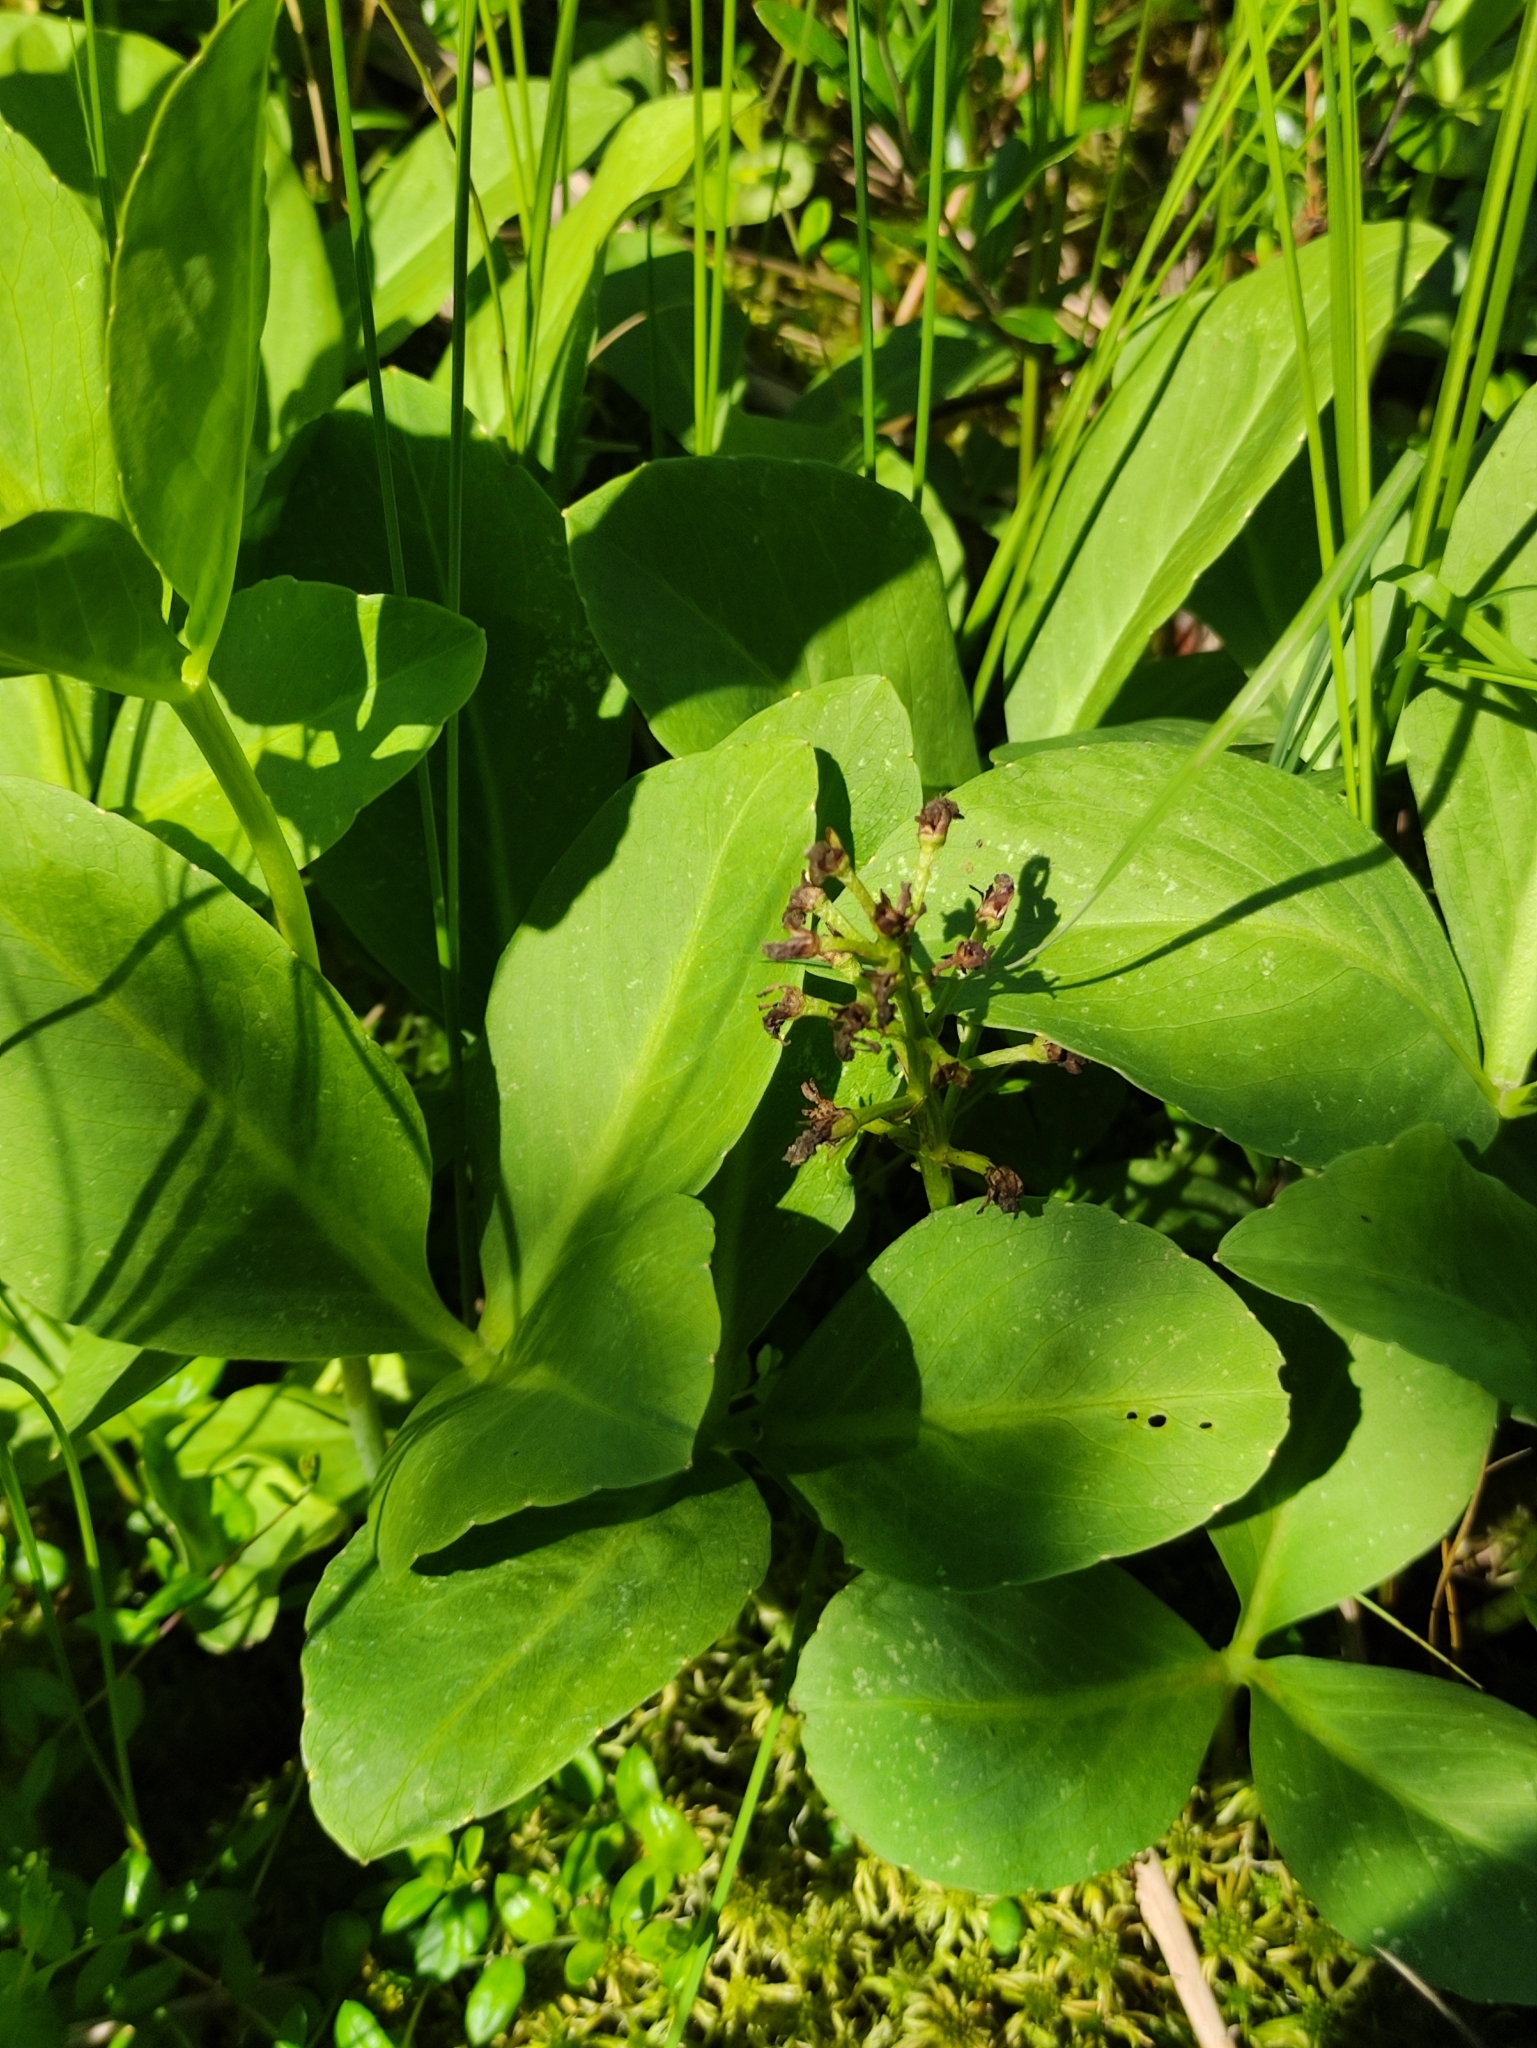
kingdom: Plantae
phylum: Tracheophyta
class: Magnoliopsida
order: Asterales
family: Menyanthaceae
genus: Menyanthes
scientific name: Menyanthes trifoliata
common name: Bogbean
